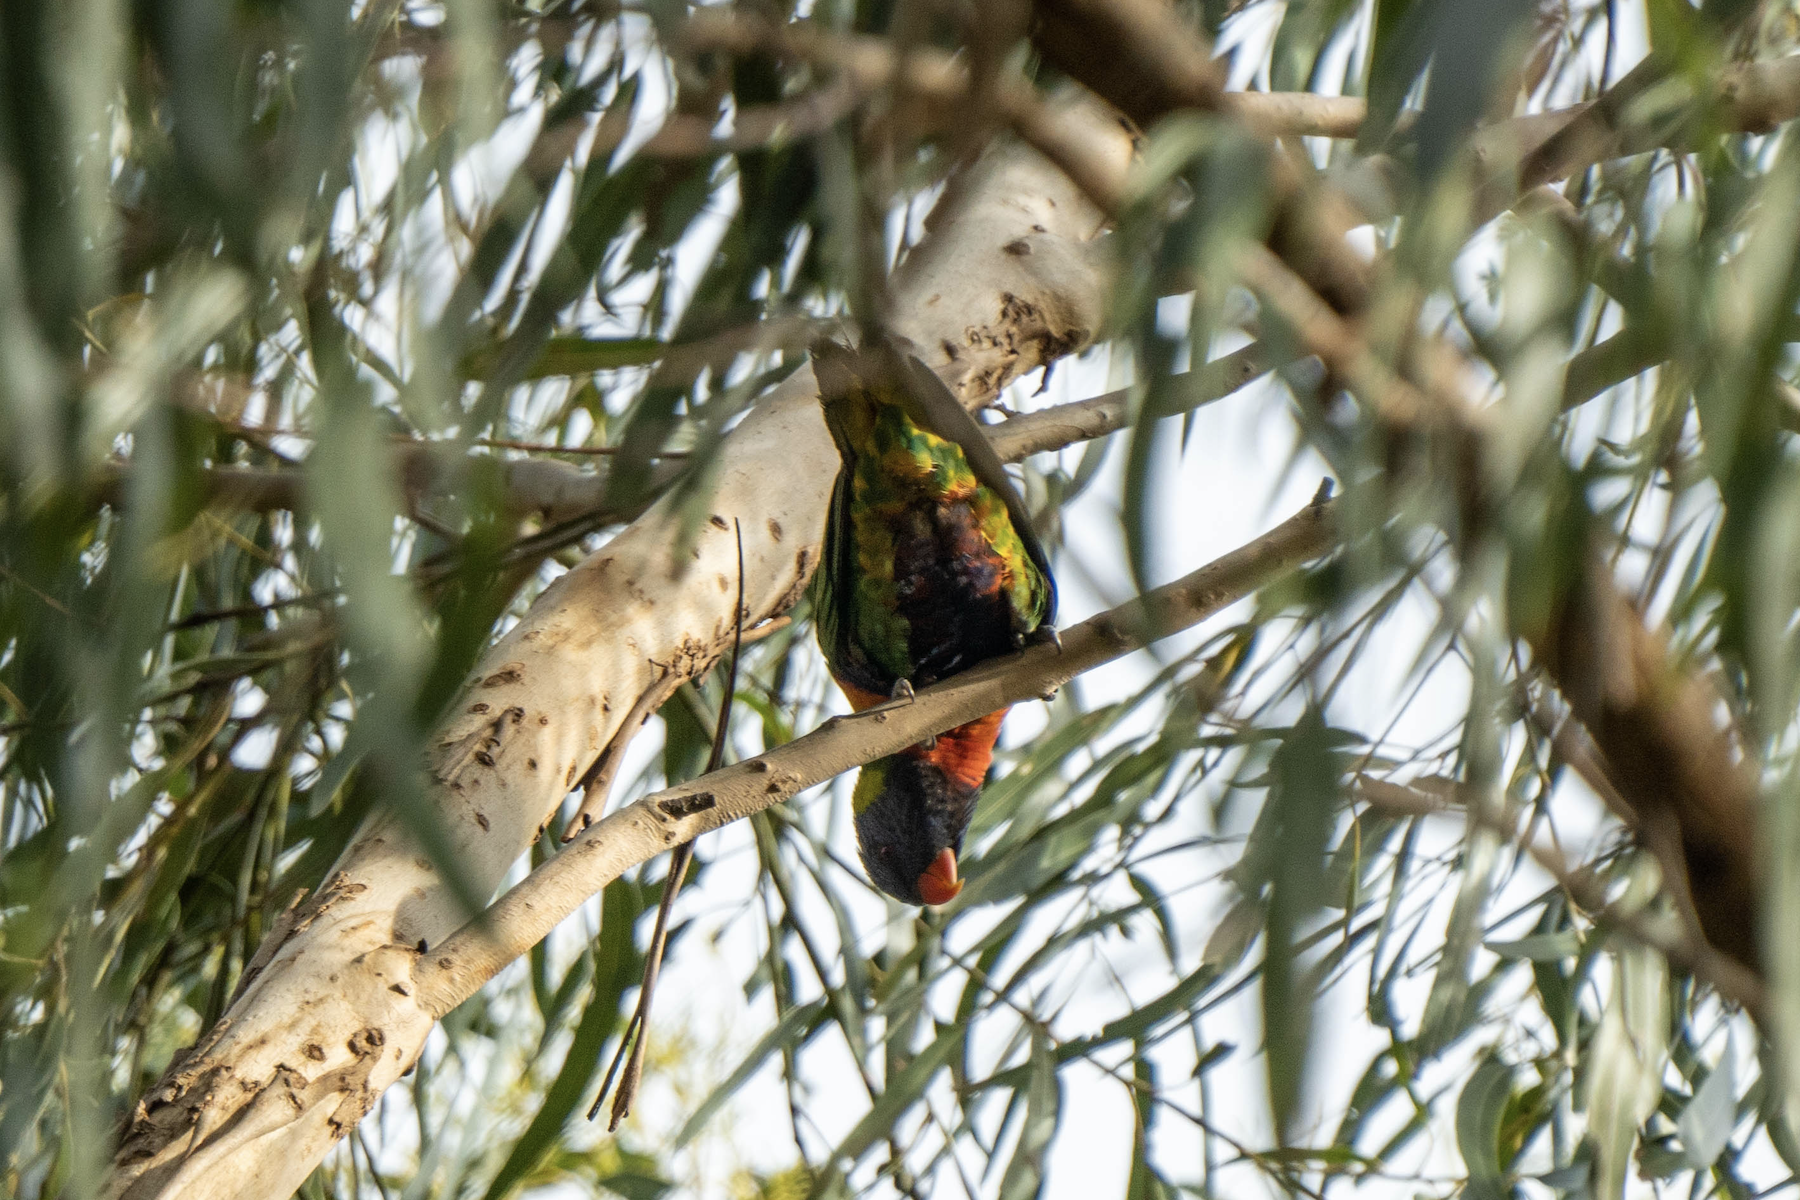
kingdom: Animalia
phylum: Chordata
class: Aves
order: Psittaciformes
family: Psittacidae
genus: Trichoglossus
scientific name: Trichoglossus haematodus
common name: Coconut lorikeet
